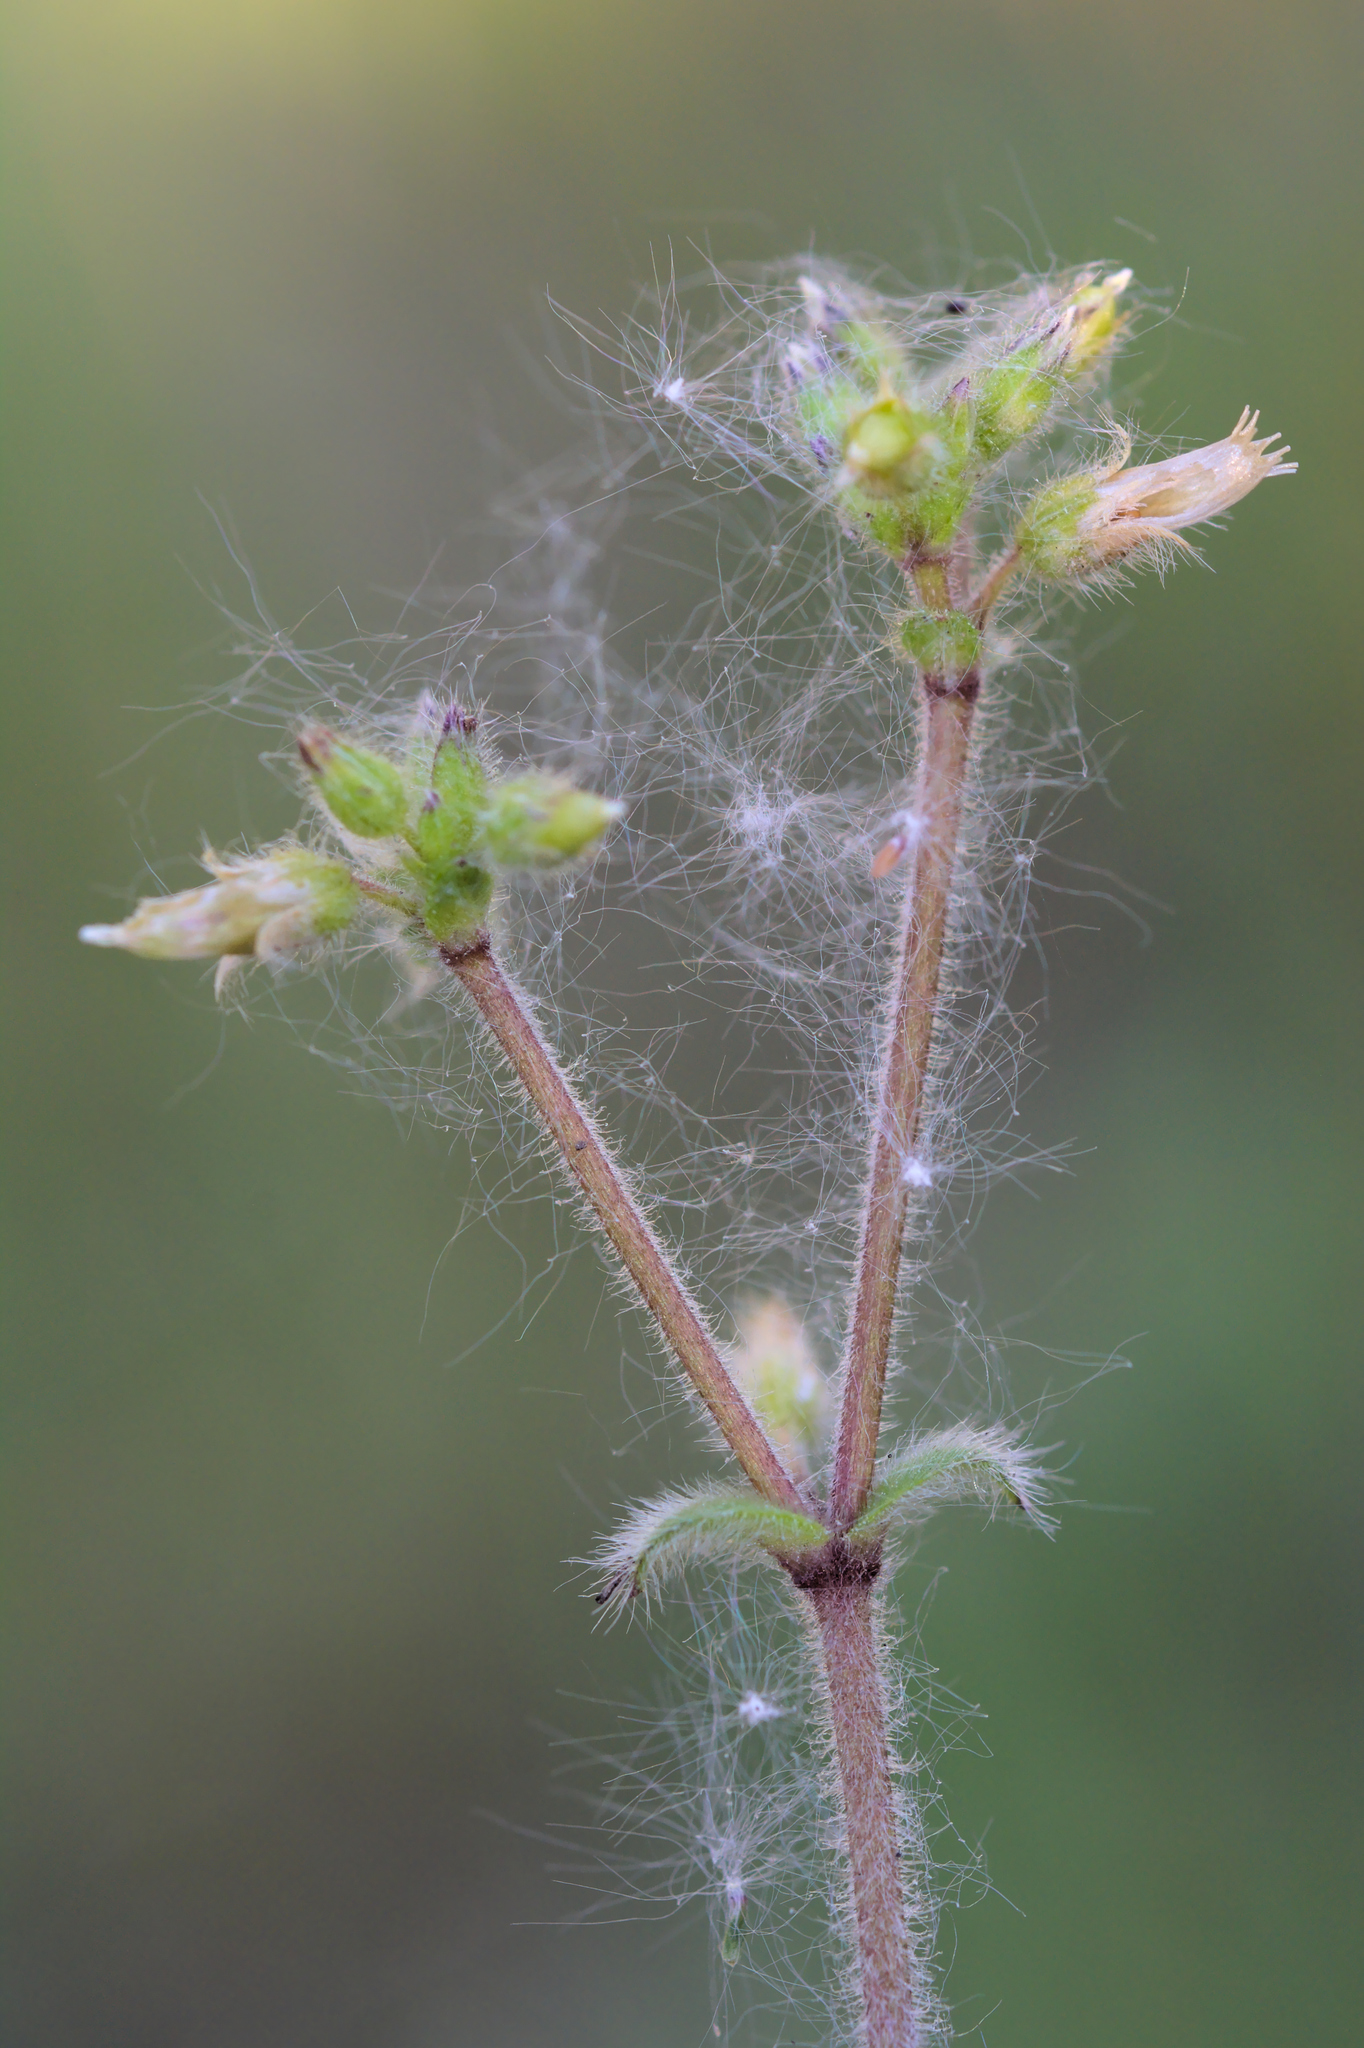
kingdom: Plantae
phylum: Tracheophyta
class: Magnoliopsida
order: Caryophyllales
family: Caryophyllaceae
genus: Cerastium
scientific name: Cerastium glomeratum
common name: Sticky chickweed
